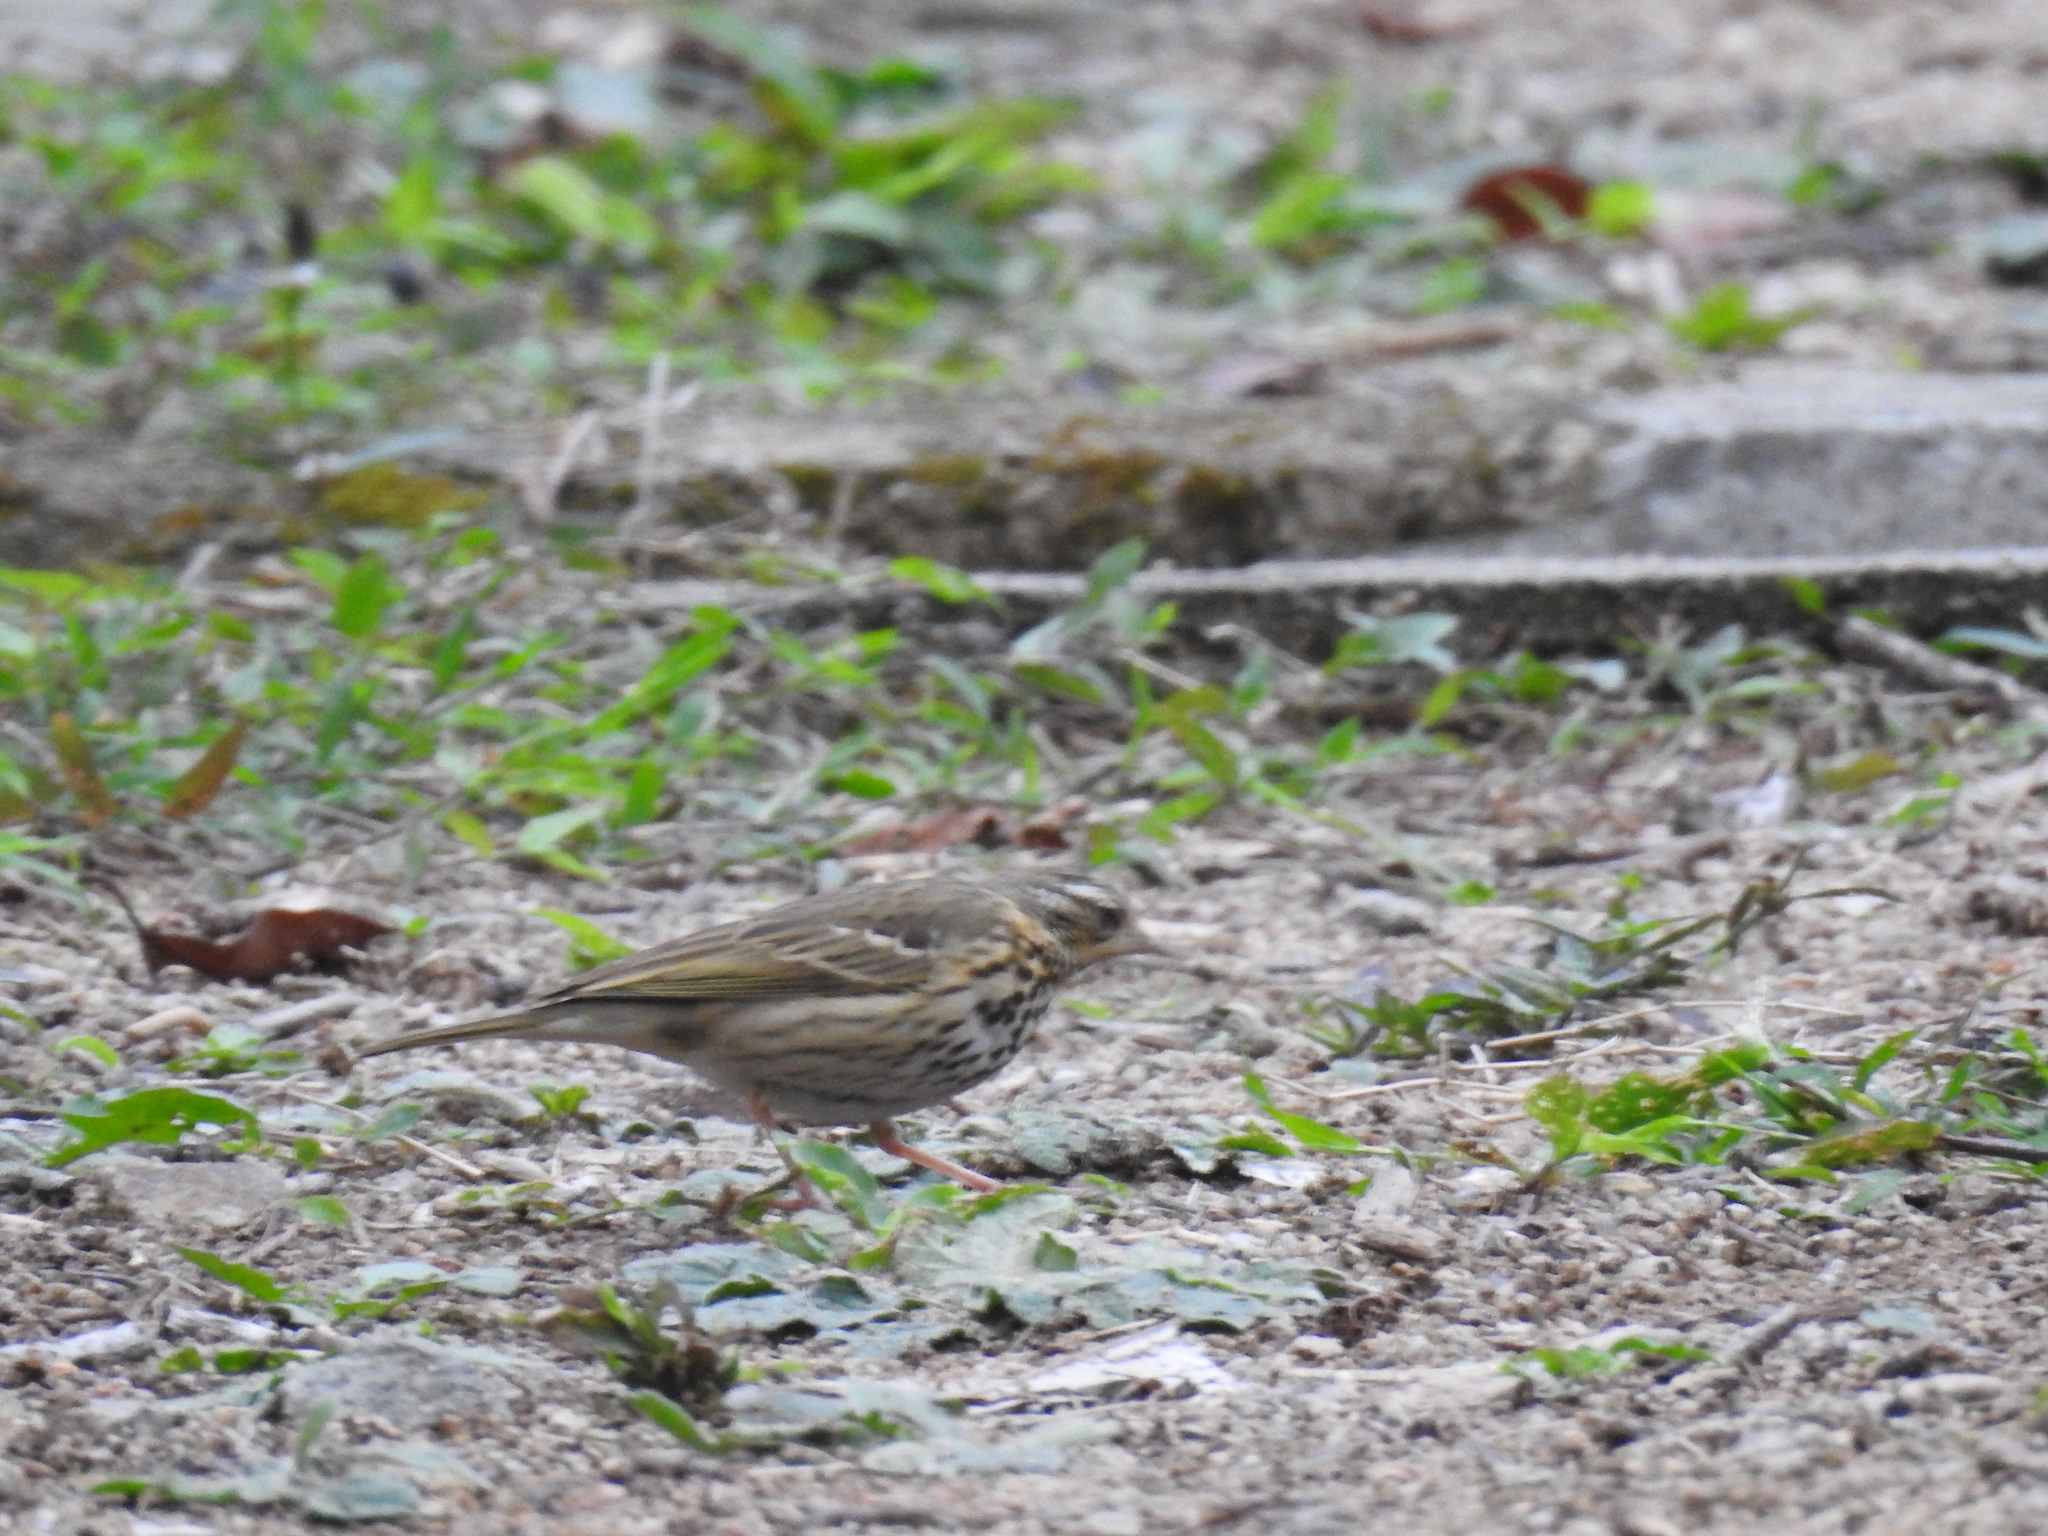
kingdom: Animalia
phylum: Chordata
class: Aves
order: Passeriformes
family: Motacillidae
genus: Anthus
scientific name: Anthus hodgsoni
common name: Olive-backed pipit
